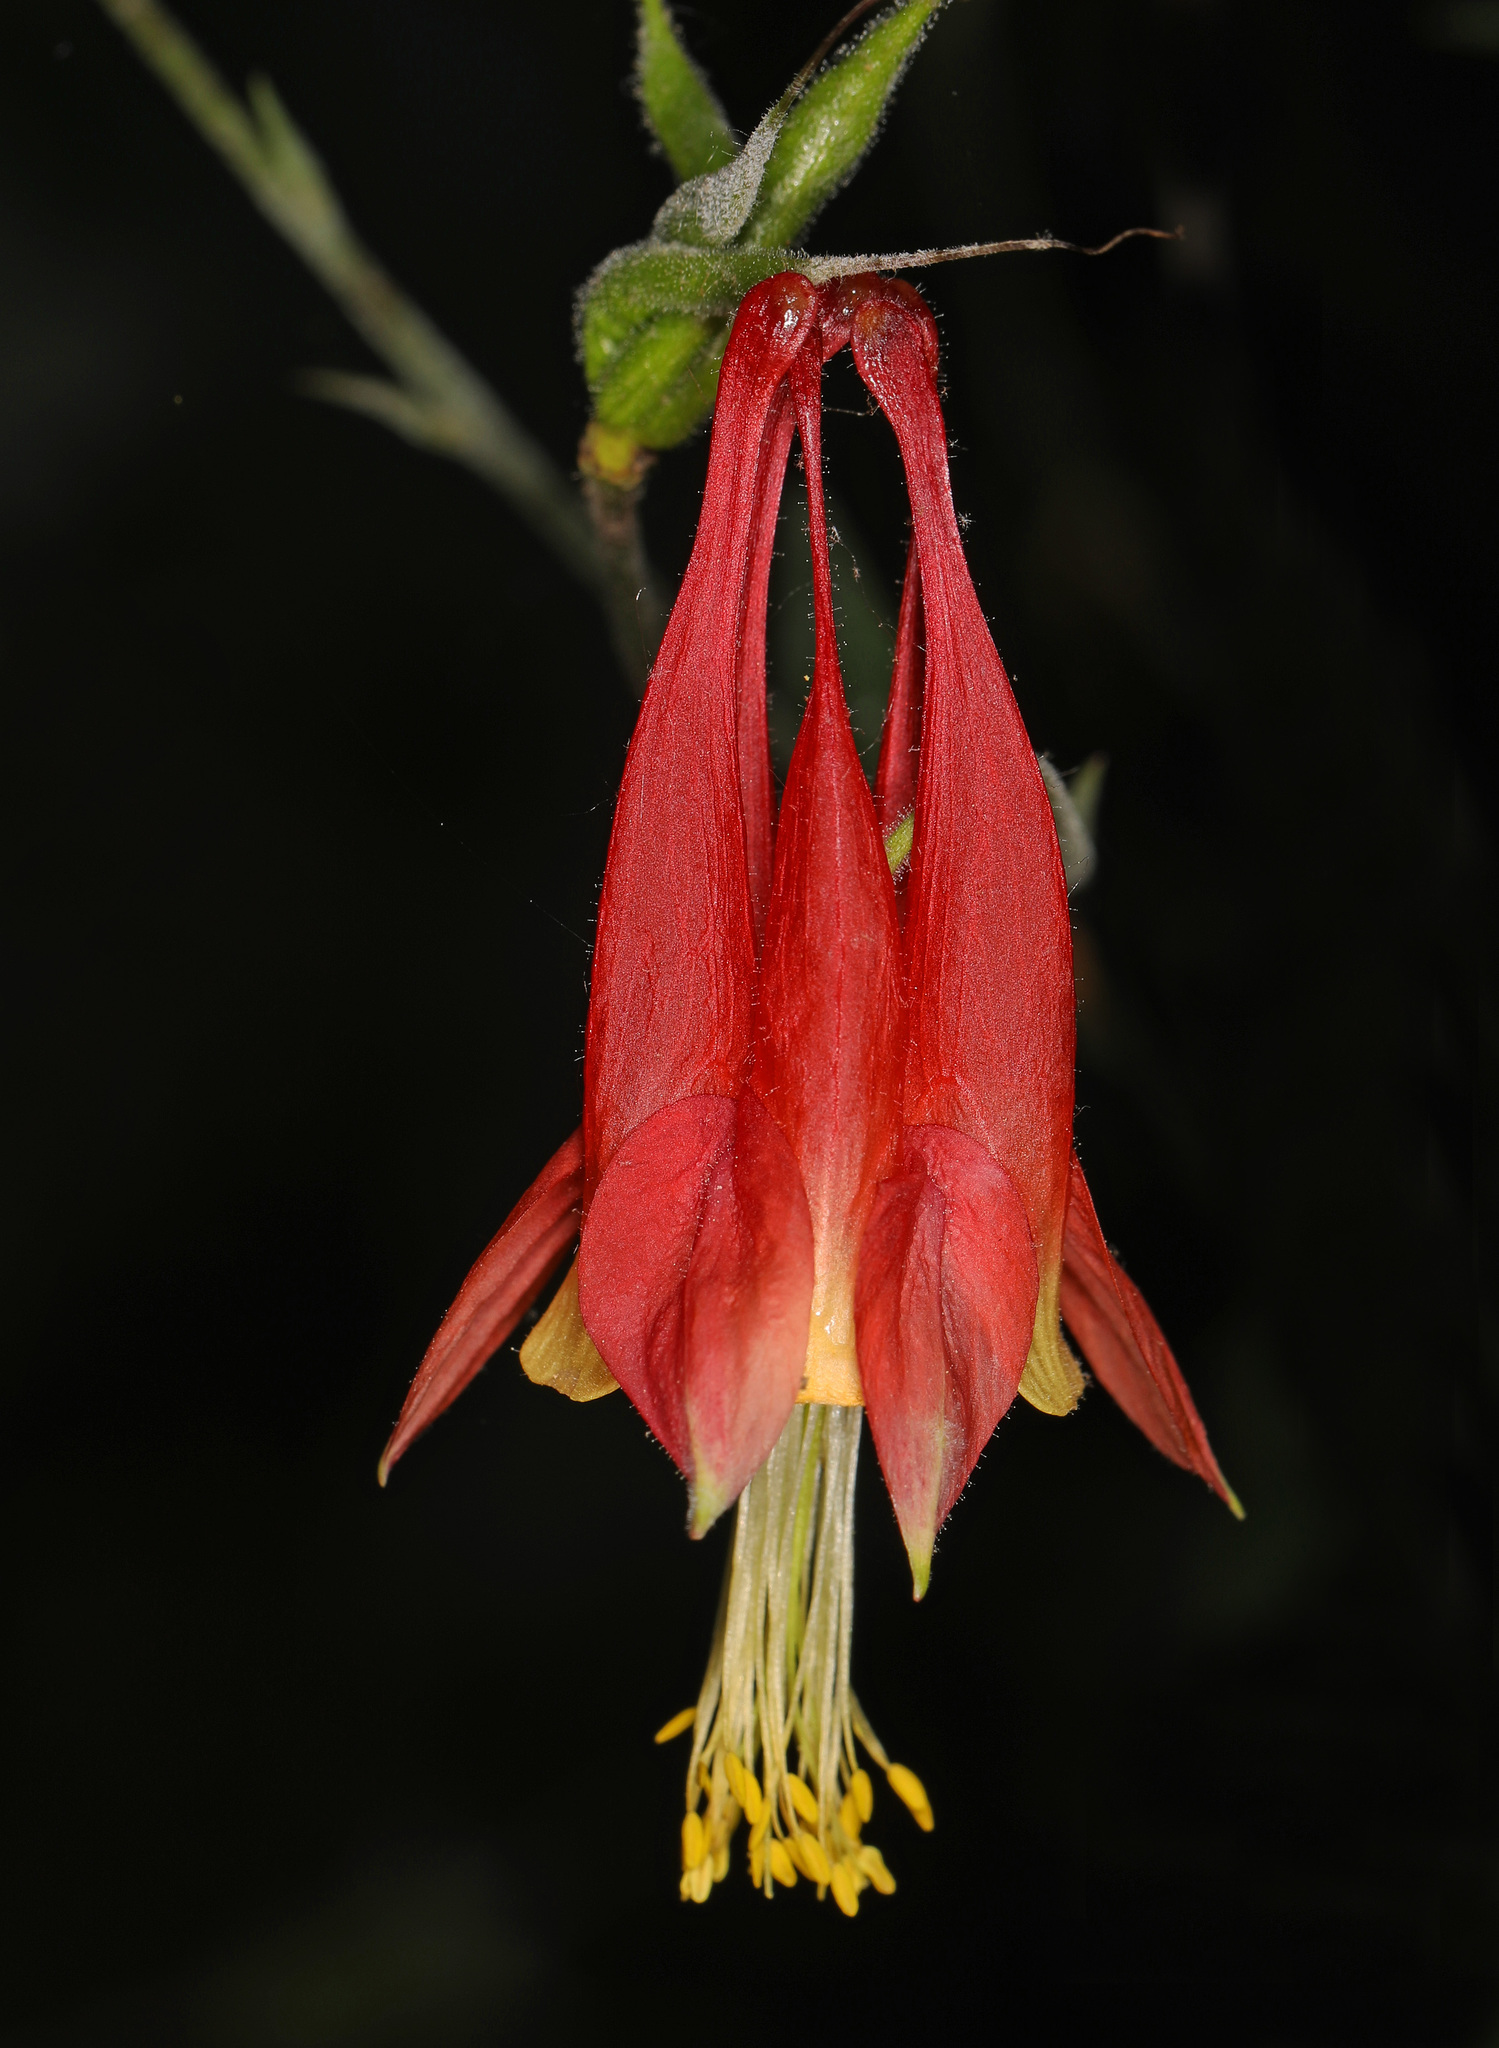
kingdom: Plantae
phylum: Tracheophyta
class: Magnoliopsida
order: Ranunculales
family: Ranunculaceae
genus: Aquilegia
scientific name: Aquilegia canadensis
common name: American columbine
